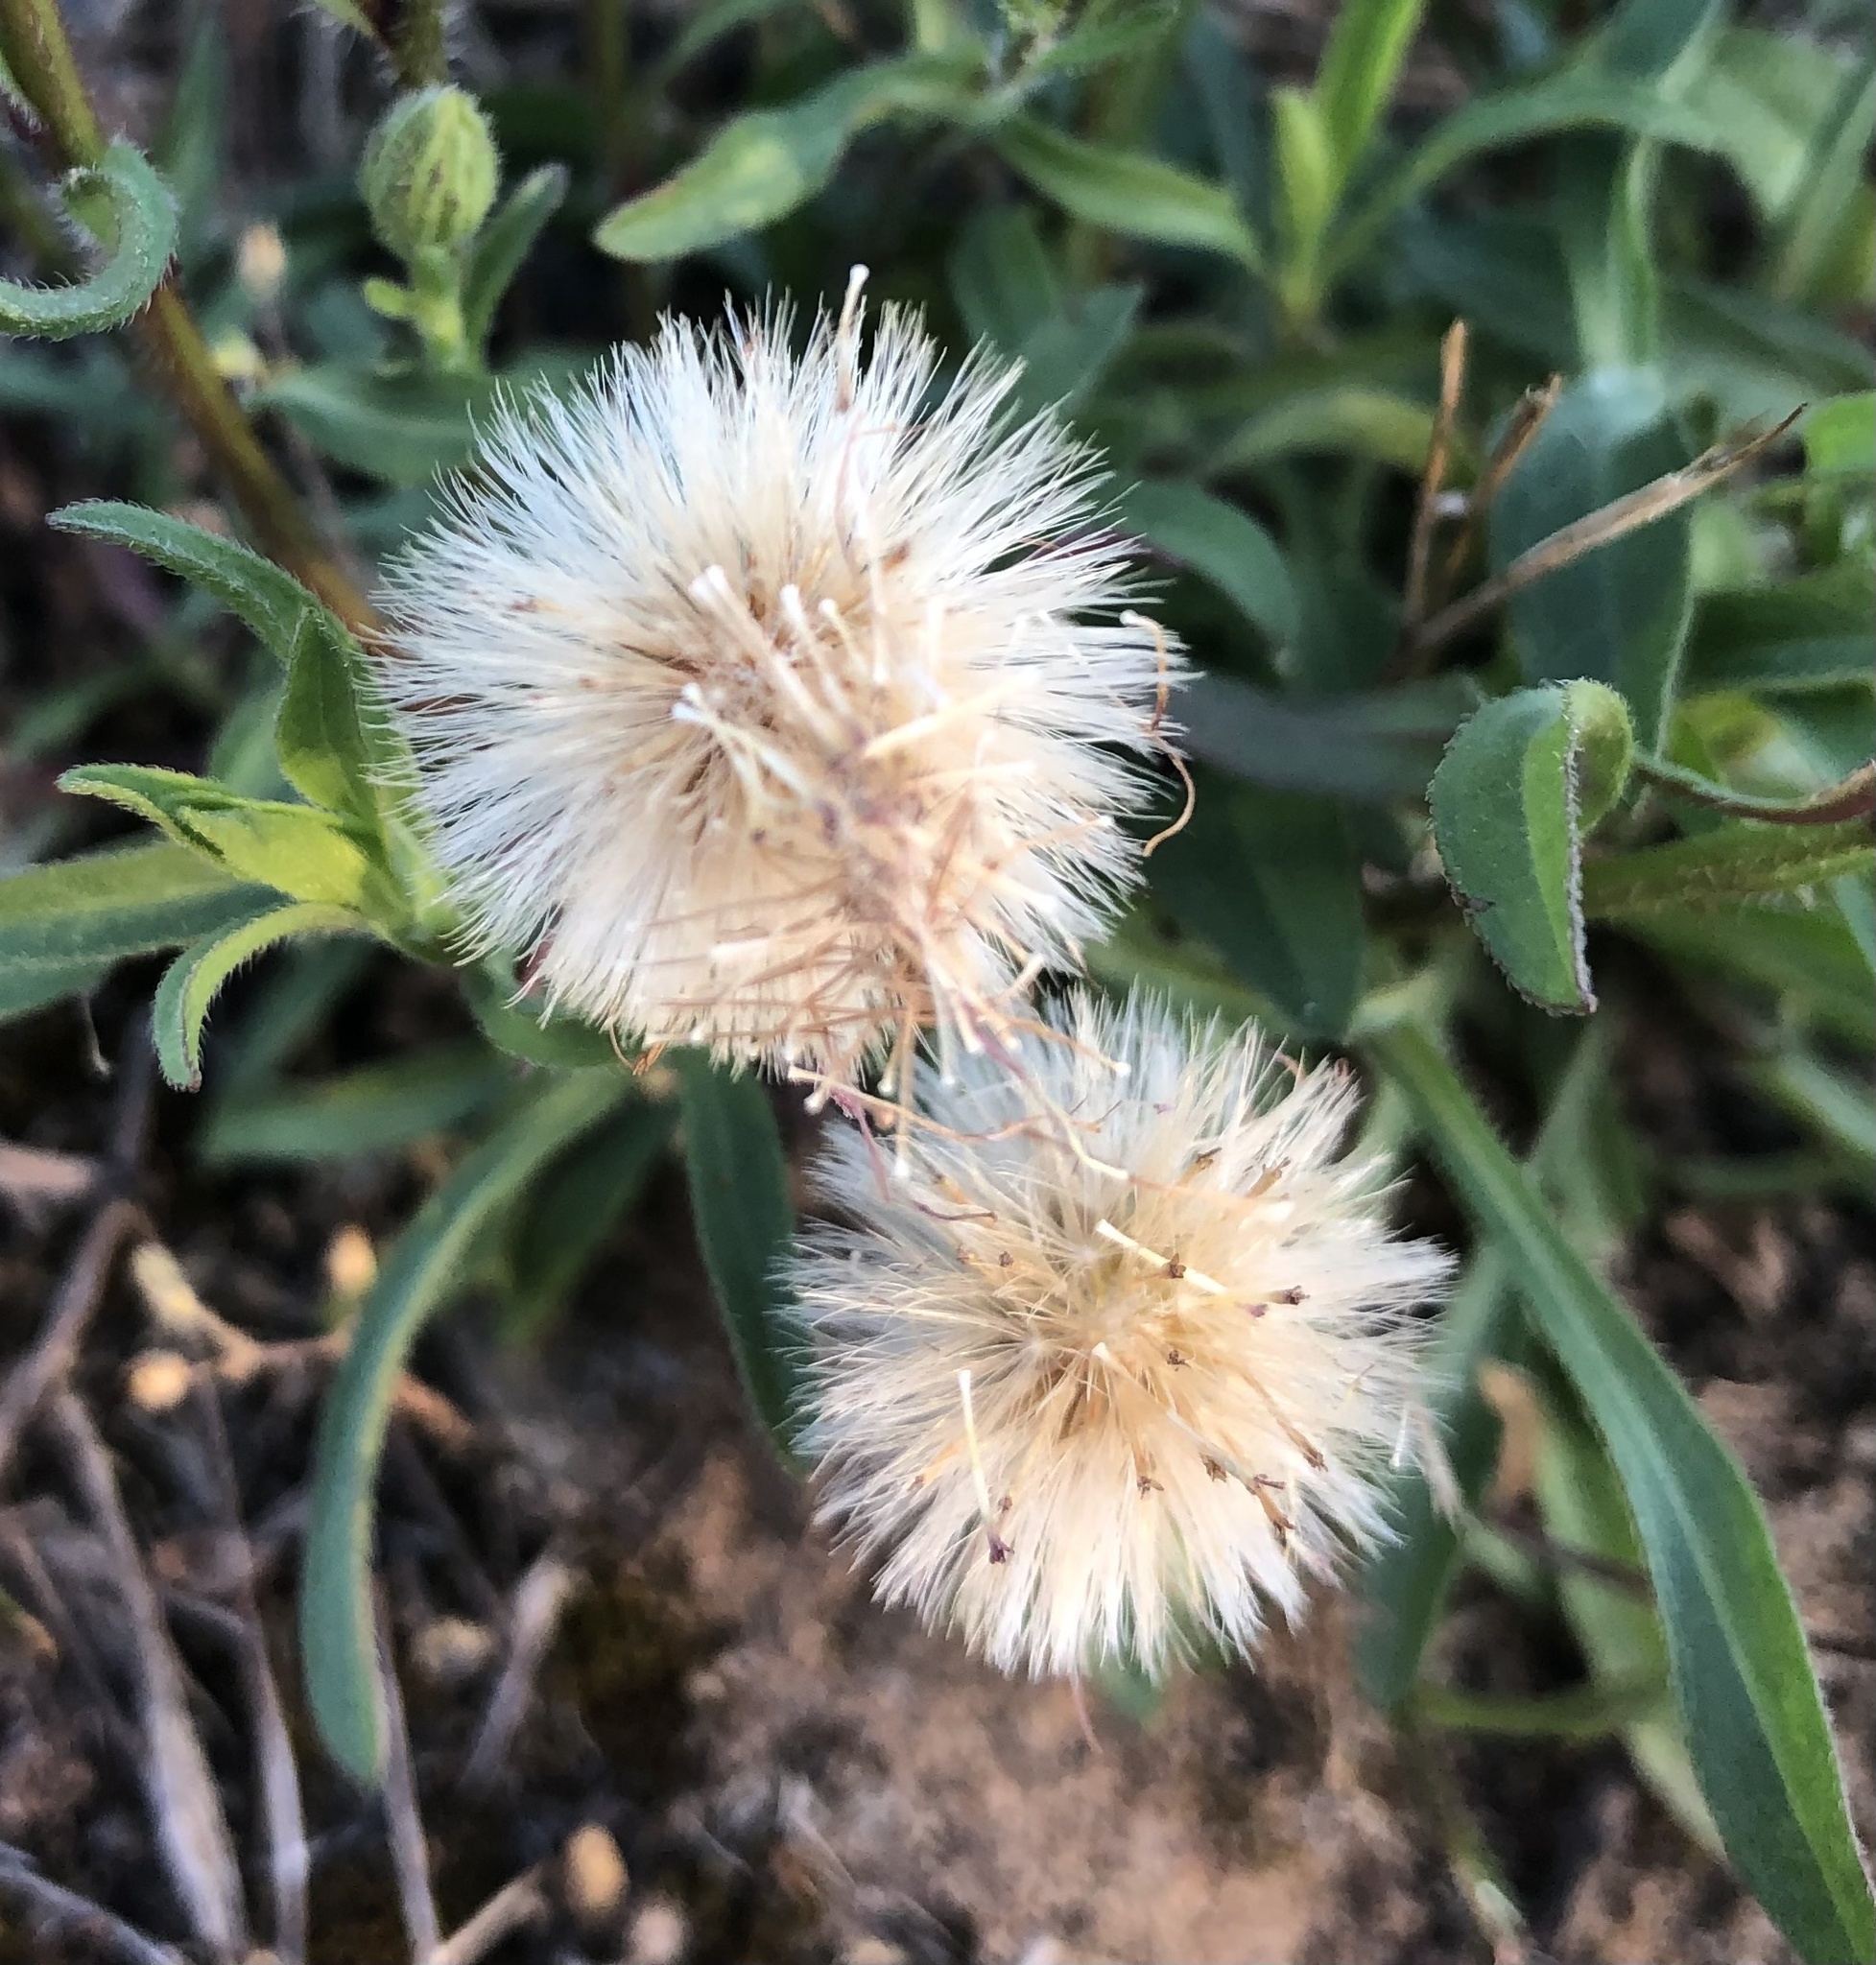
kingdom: Plantae
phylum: Tracheophyta
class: Magnoliopsida
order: Asterales
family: Asteraceae
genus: Erigeron
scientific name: Erigeron acris
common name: Blue fleabane
